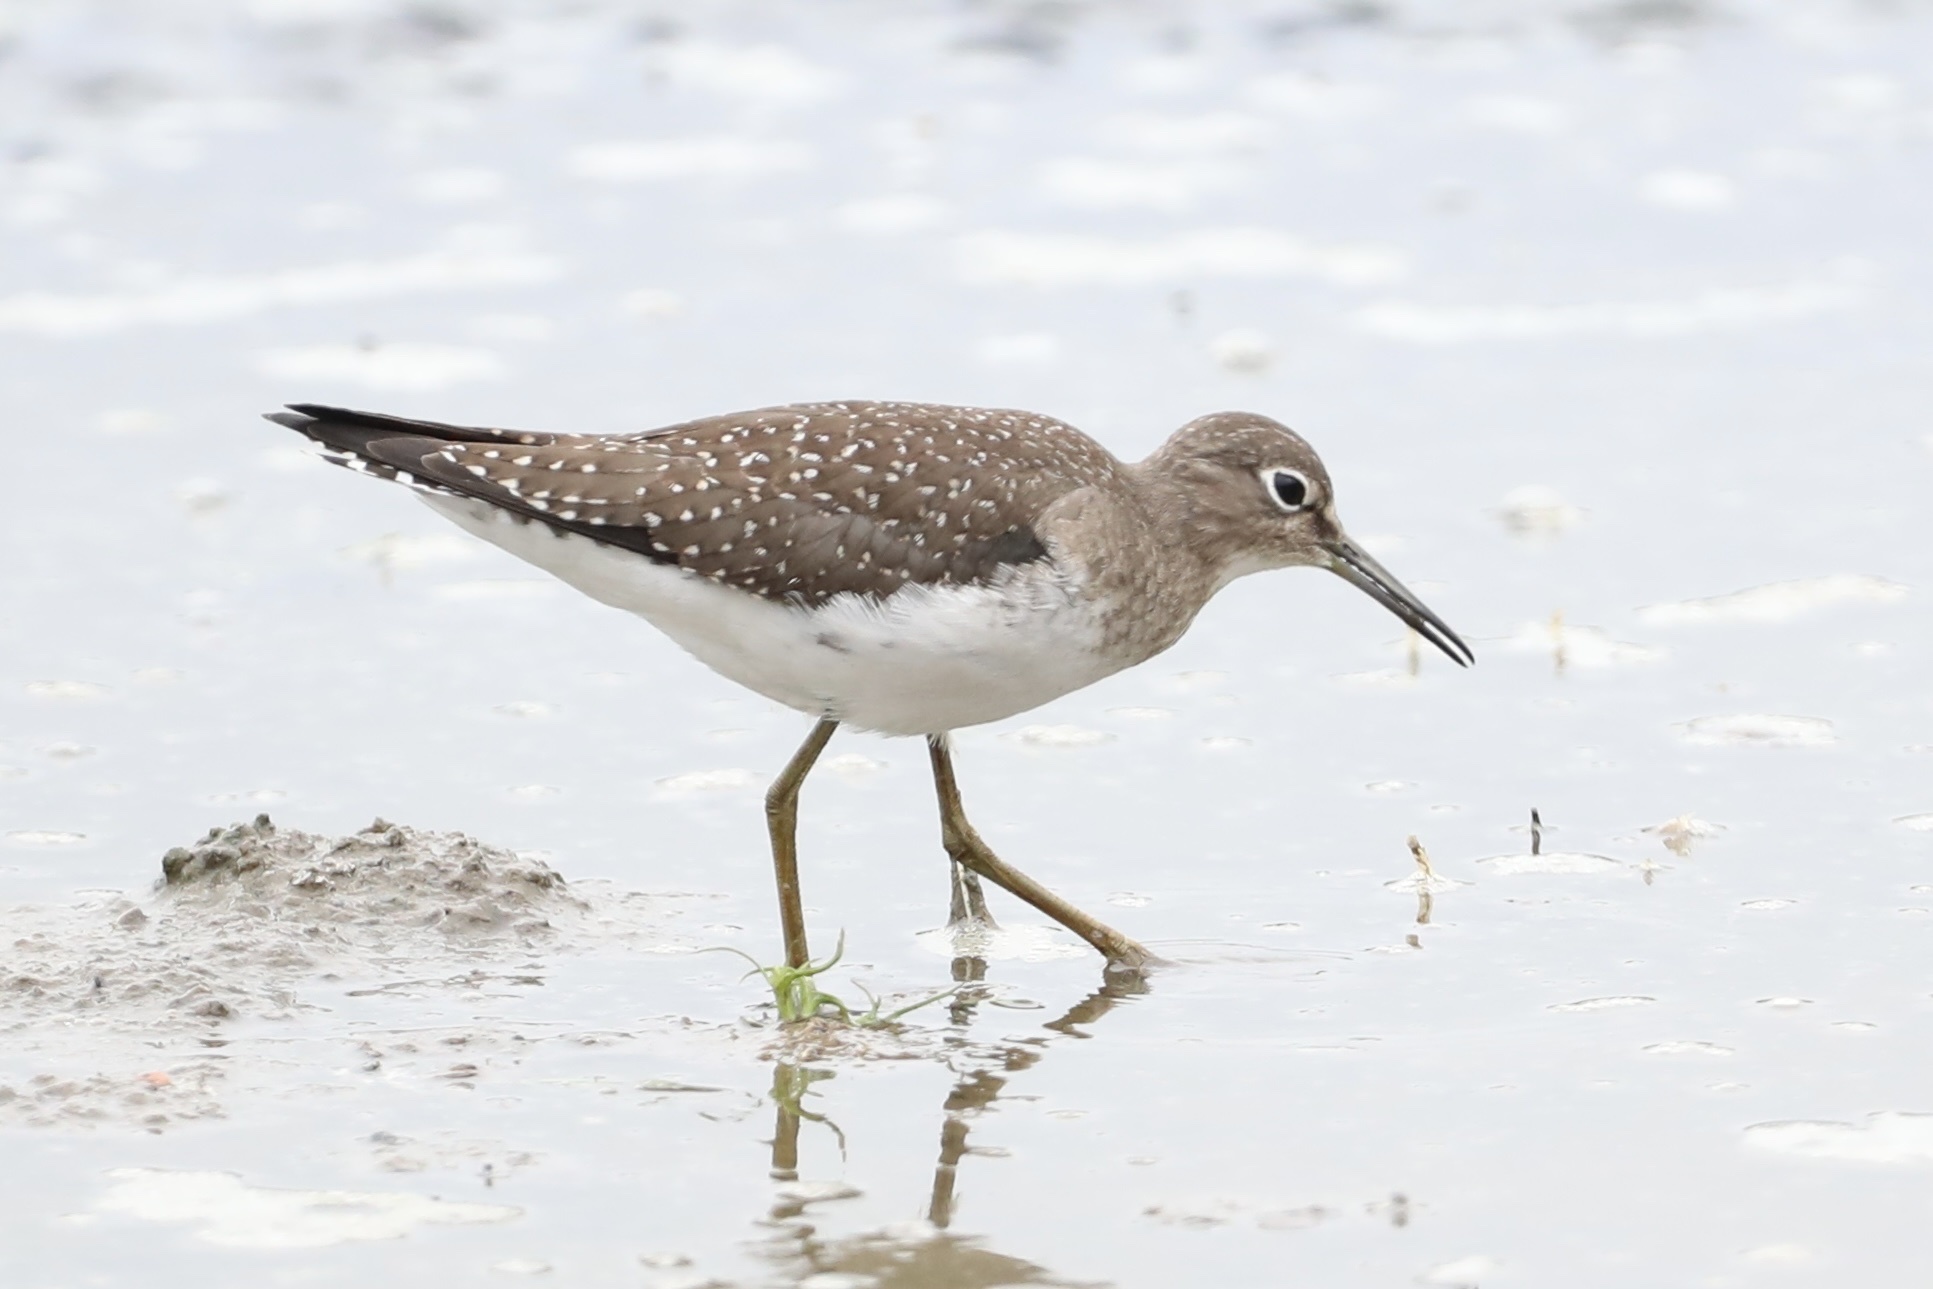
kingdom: Animalia
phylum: Chordata
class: Aves
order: Charadriiformes
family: Scolopacidae
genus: Tringa
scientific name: Tringa solitaria
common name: Solitary sandpiper
